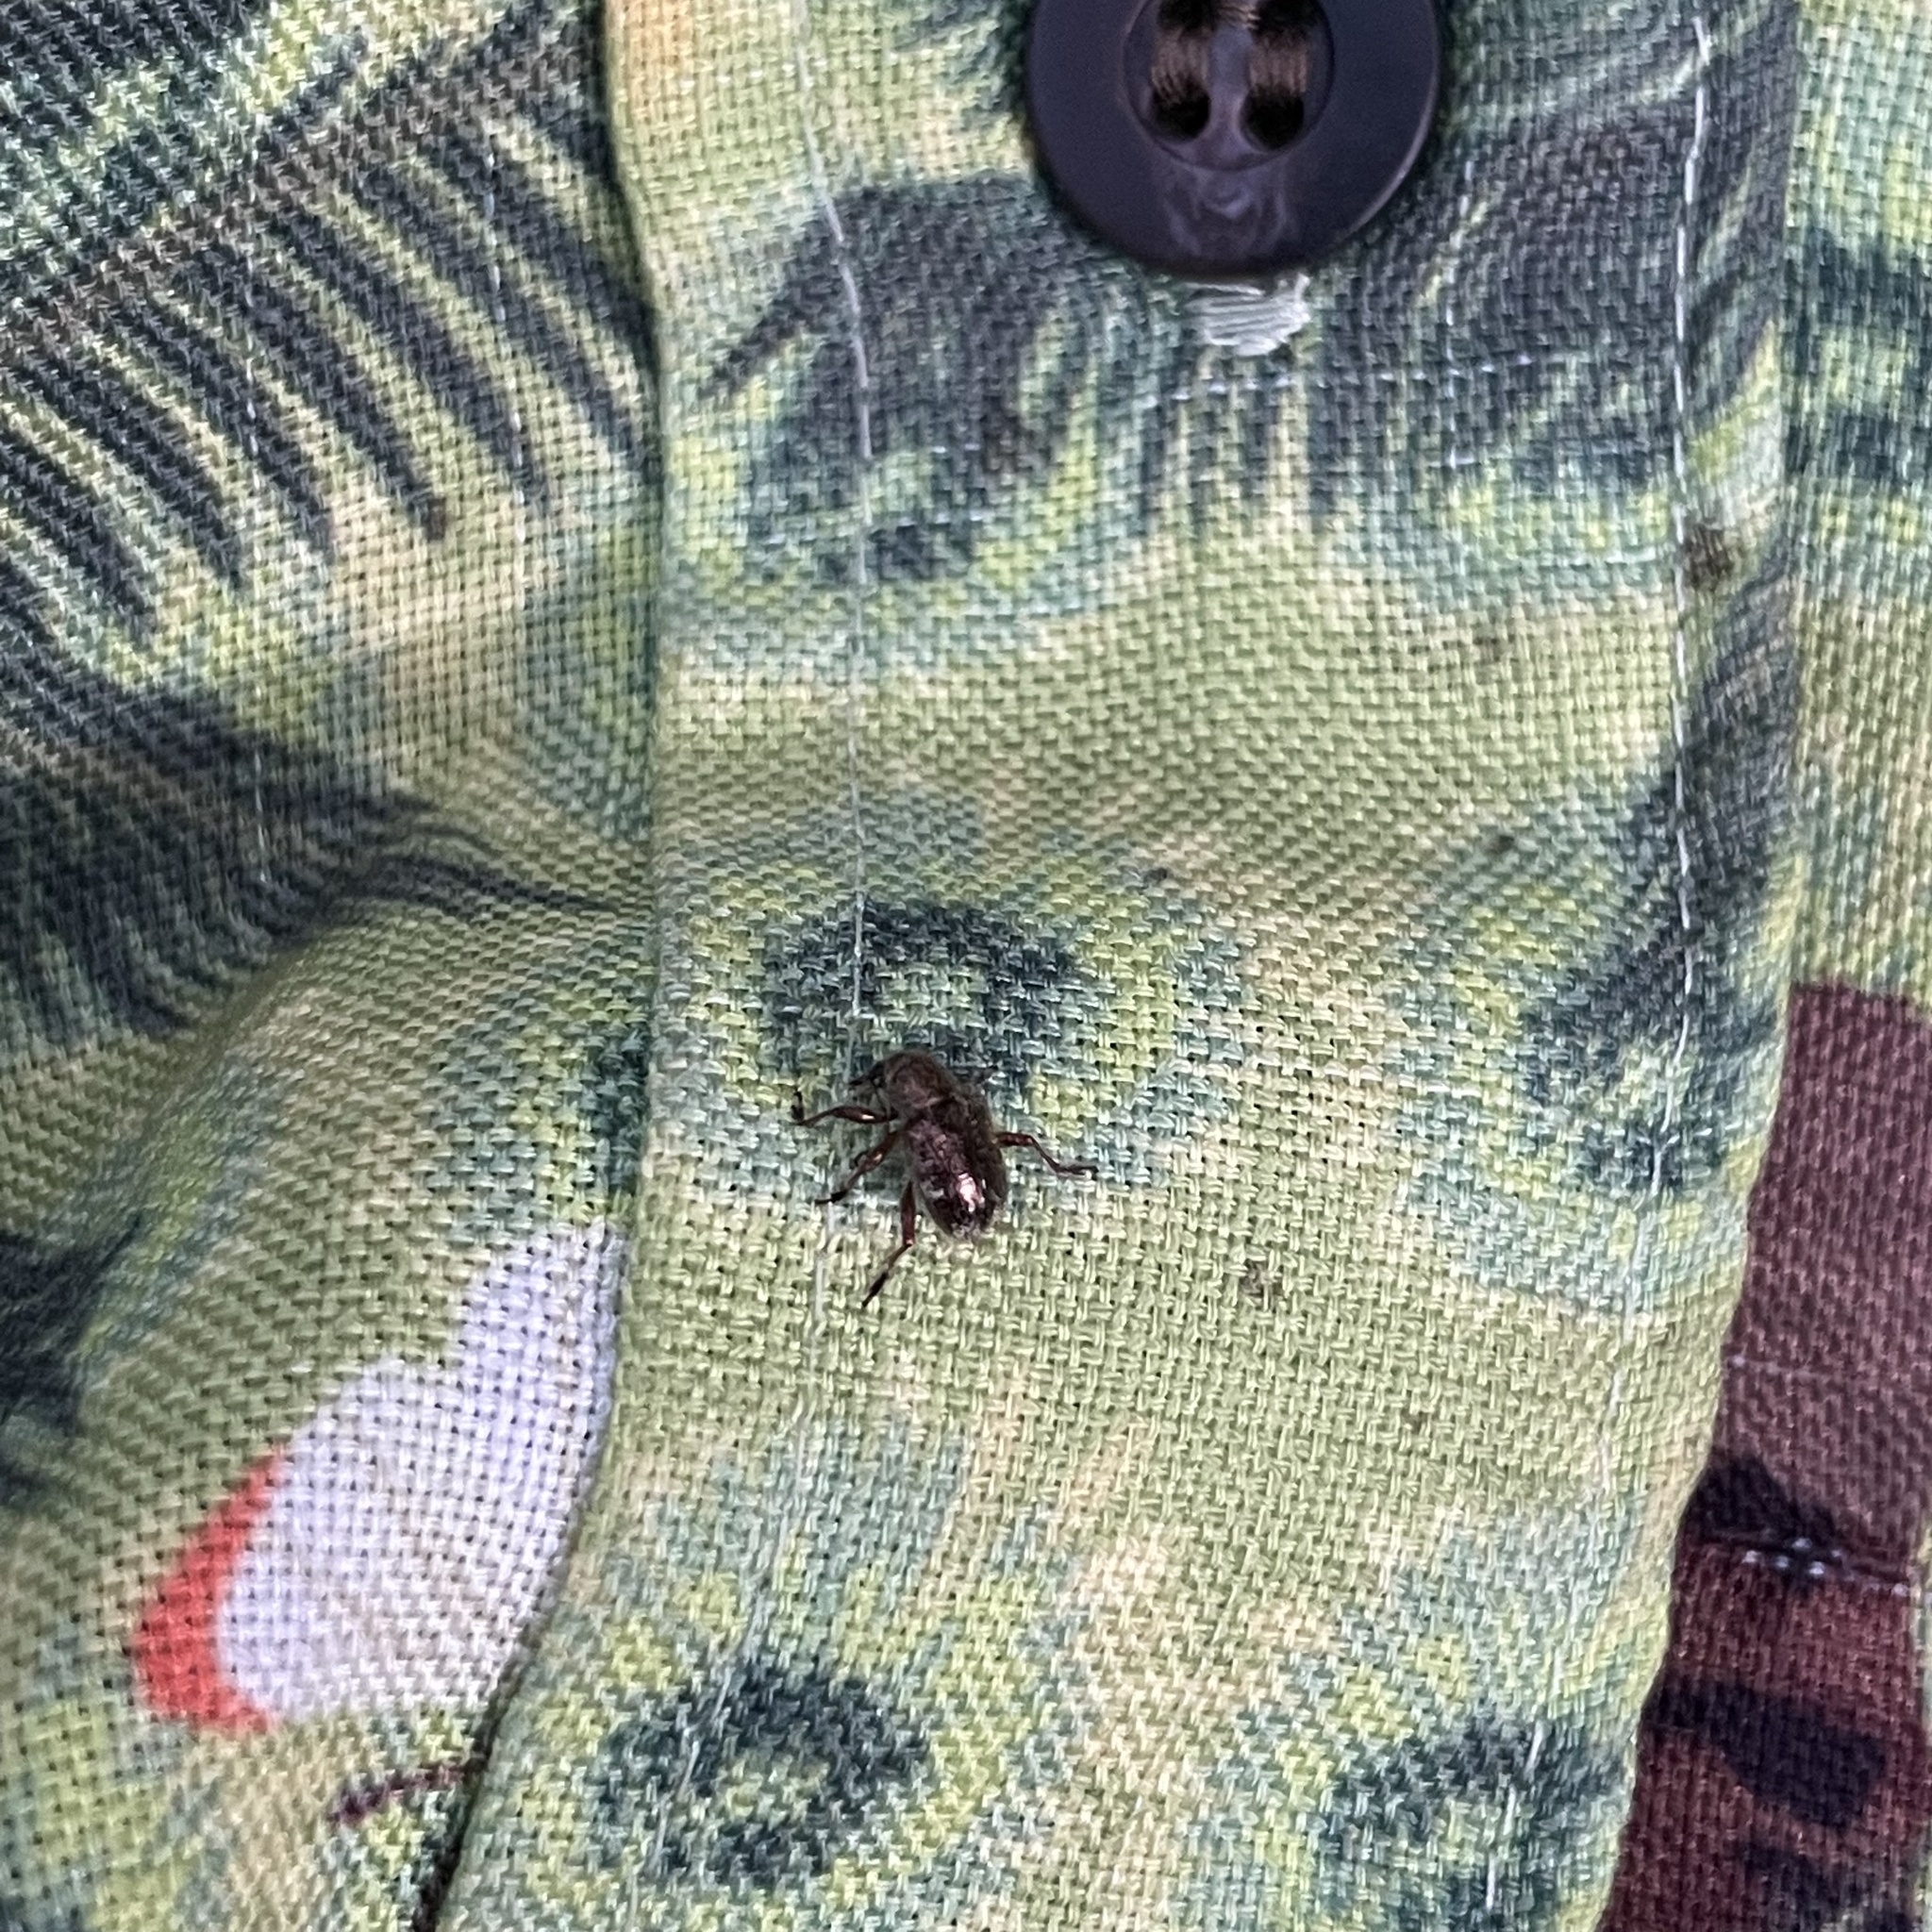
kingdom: Animalia
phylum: Arthropoda
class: Insecta
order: Coleoptera
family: Chrysomelidae
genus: Trichochrysea
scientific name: Trichochrysea okinawana
